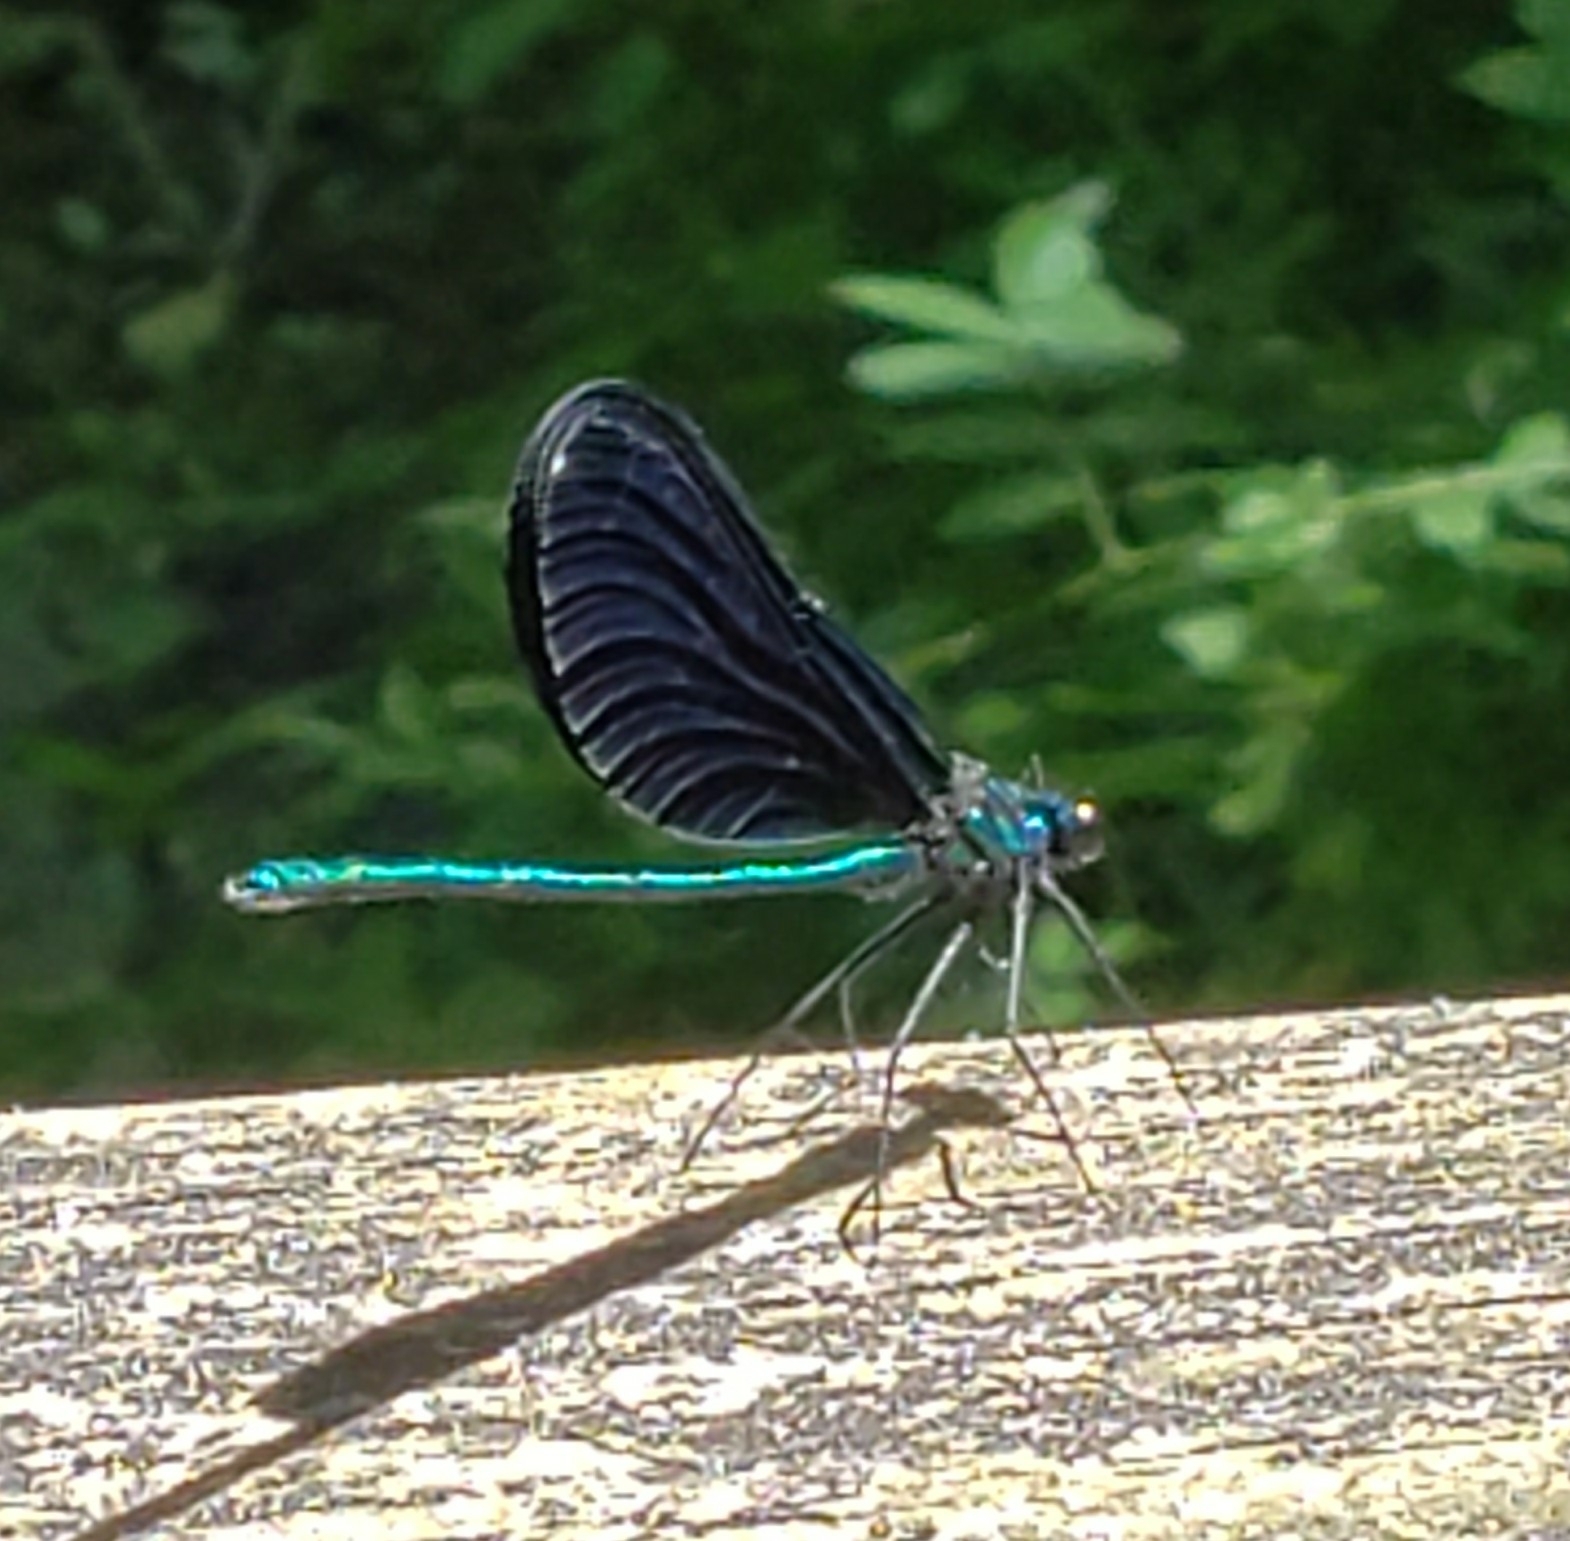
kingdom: Animalia
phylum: Arthropoda
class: Insecta
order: Odonata
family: Calopterygidae
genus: Calopteryx
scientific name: Calopteryx maculata
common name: Ebony jewelwing
